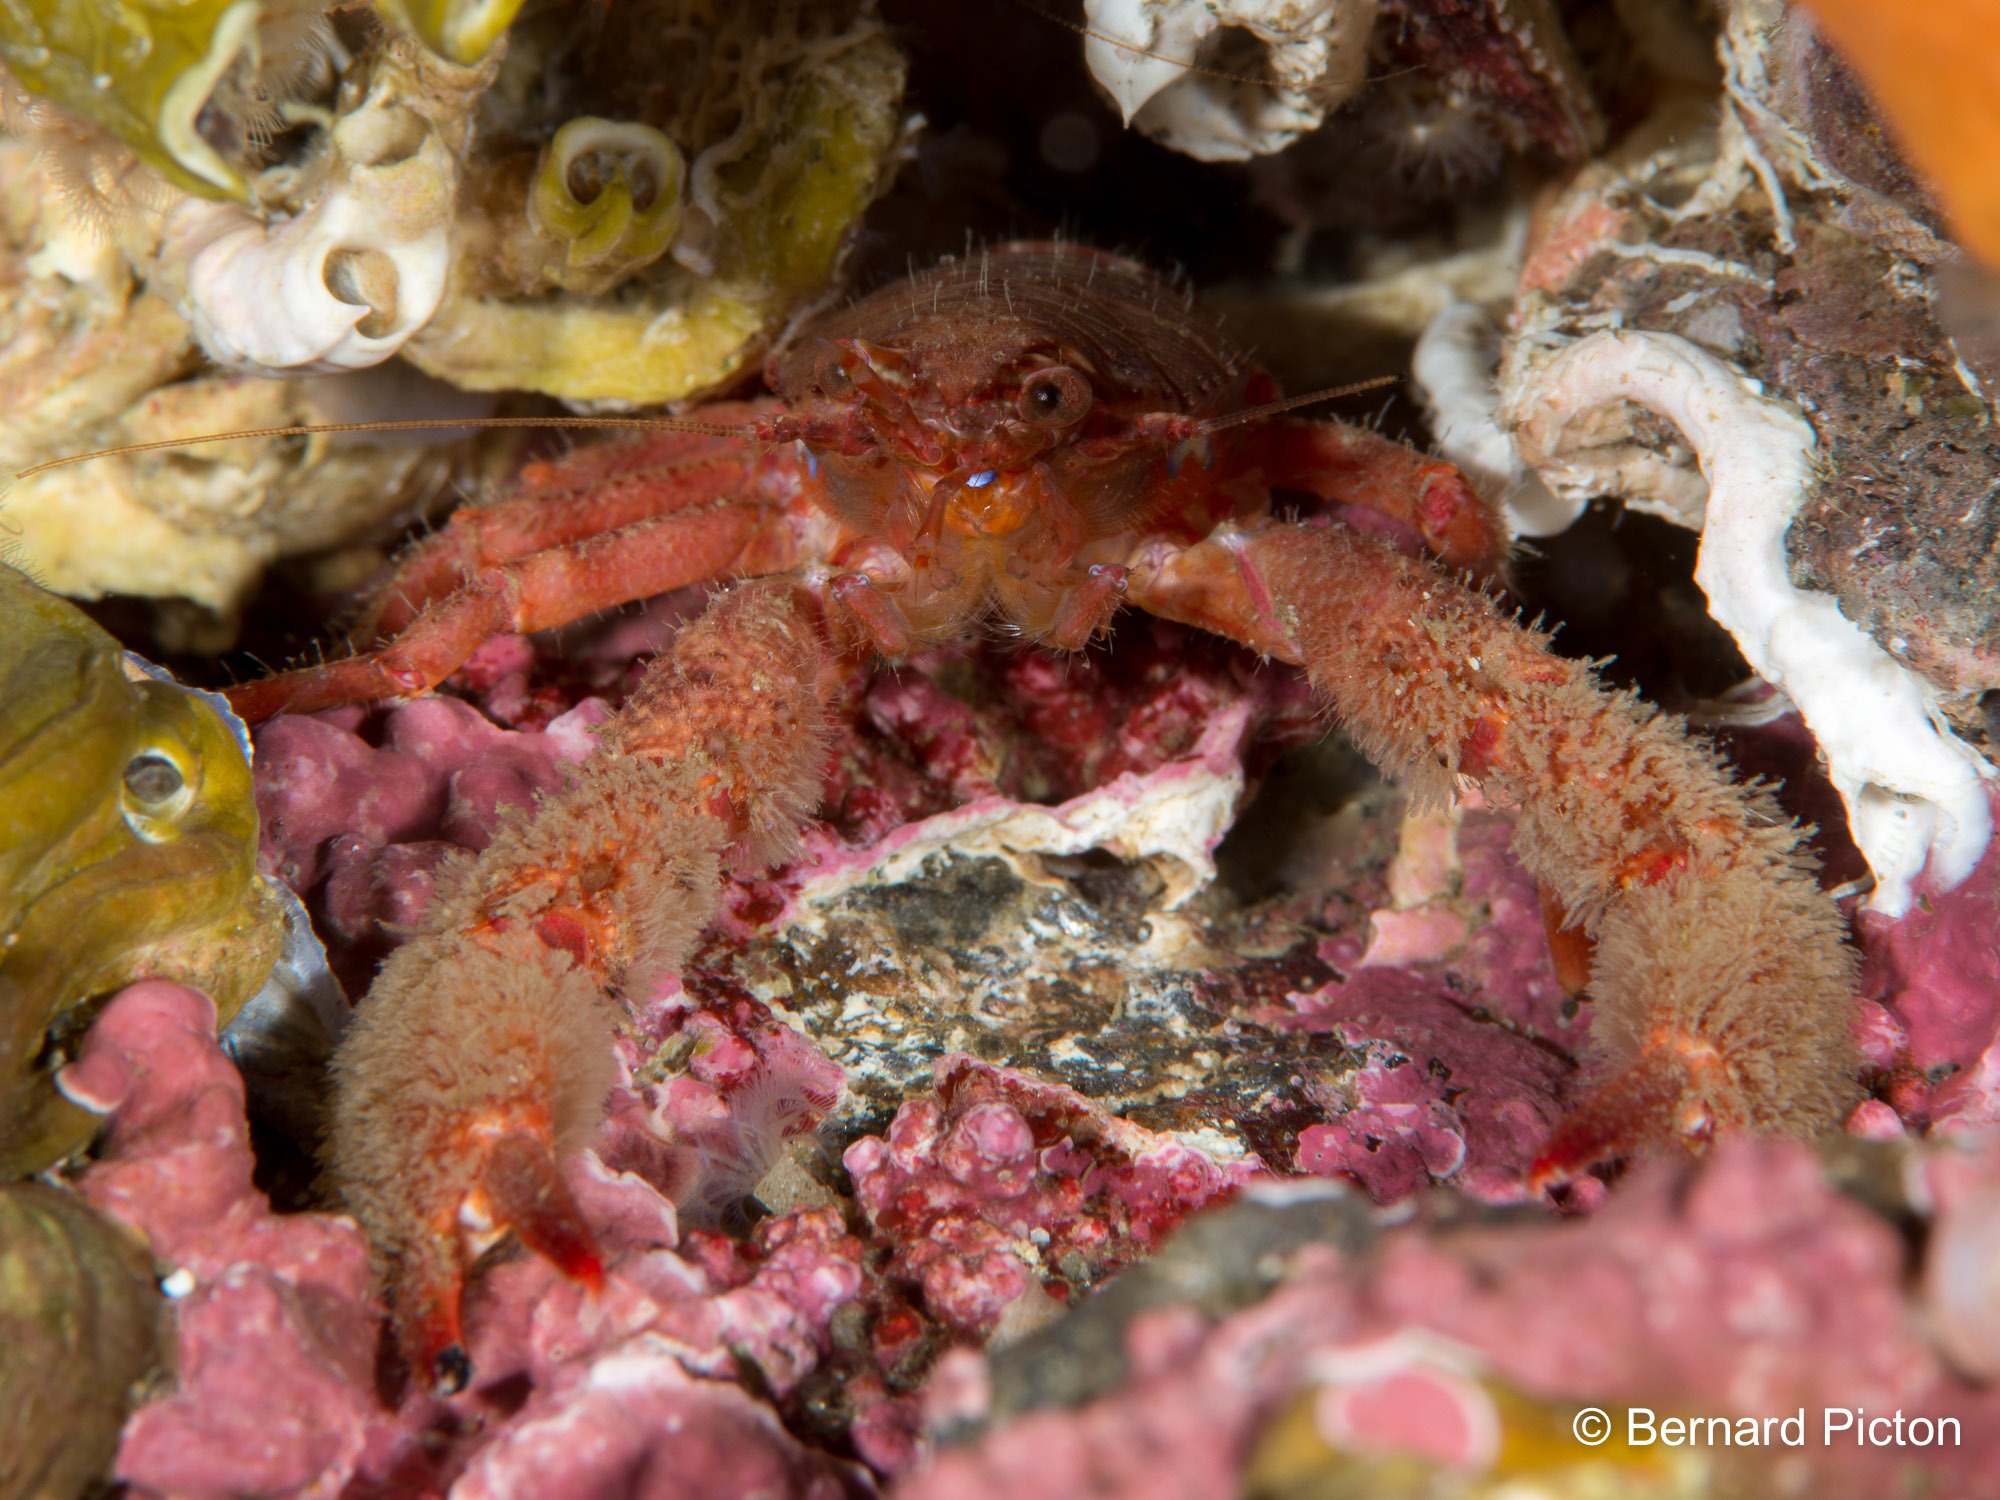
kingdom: Animalia
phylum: Arthropoda
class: Malacostraca
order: Decapoda
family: Galatheidae
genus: Galathea
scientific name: Galathea nexa
